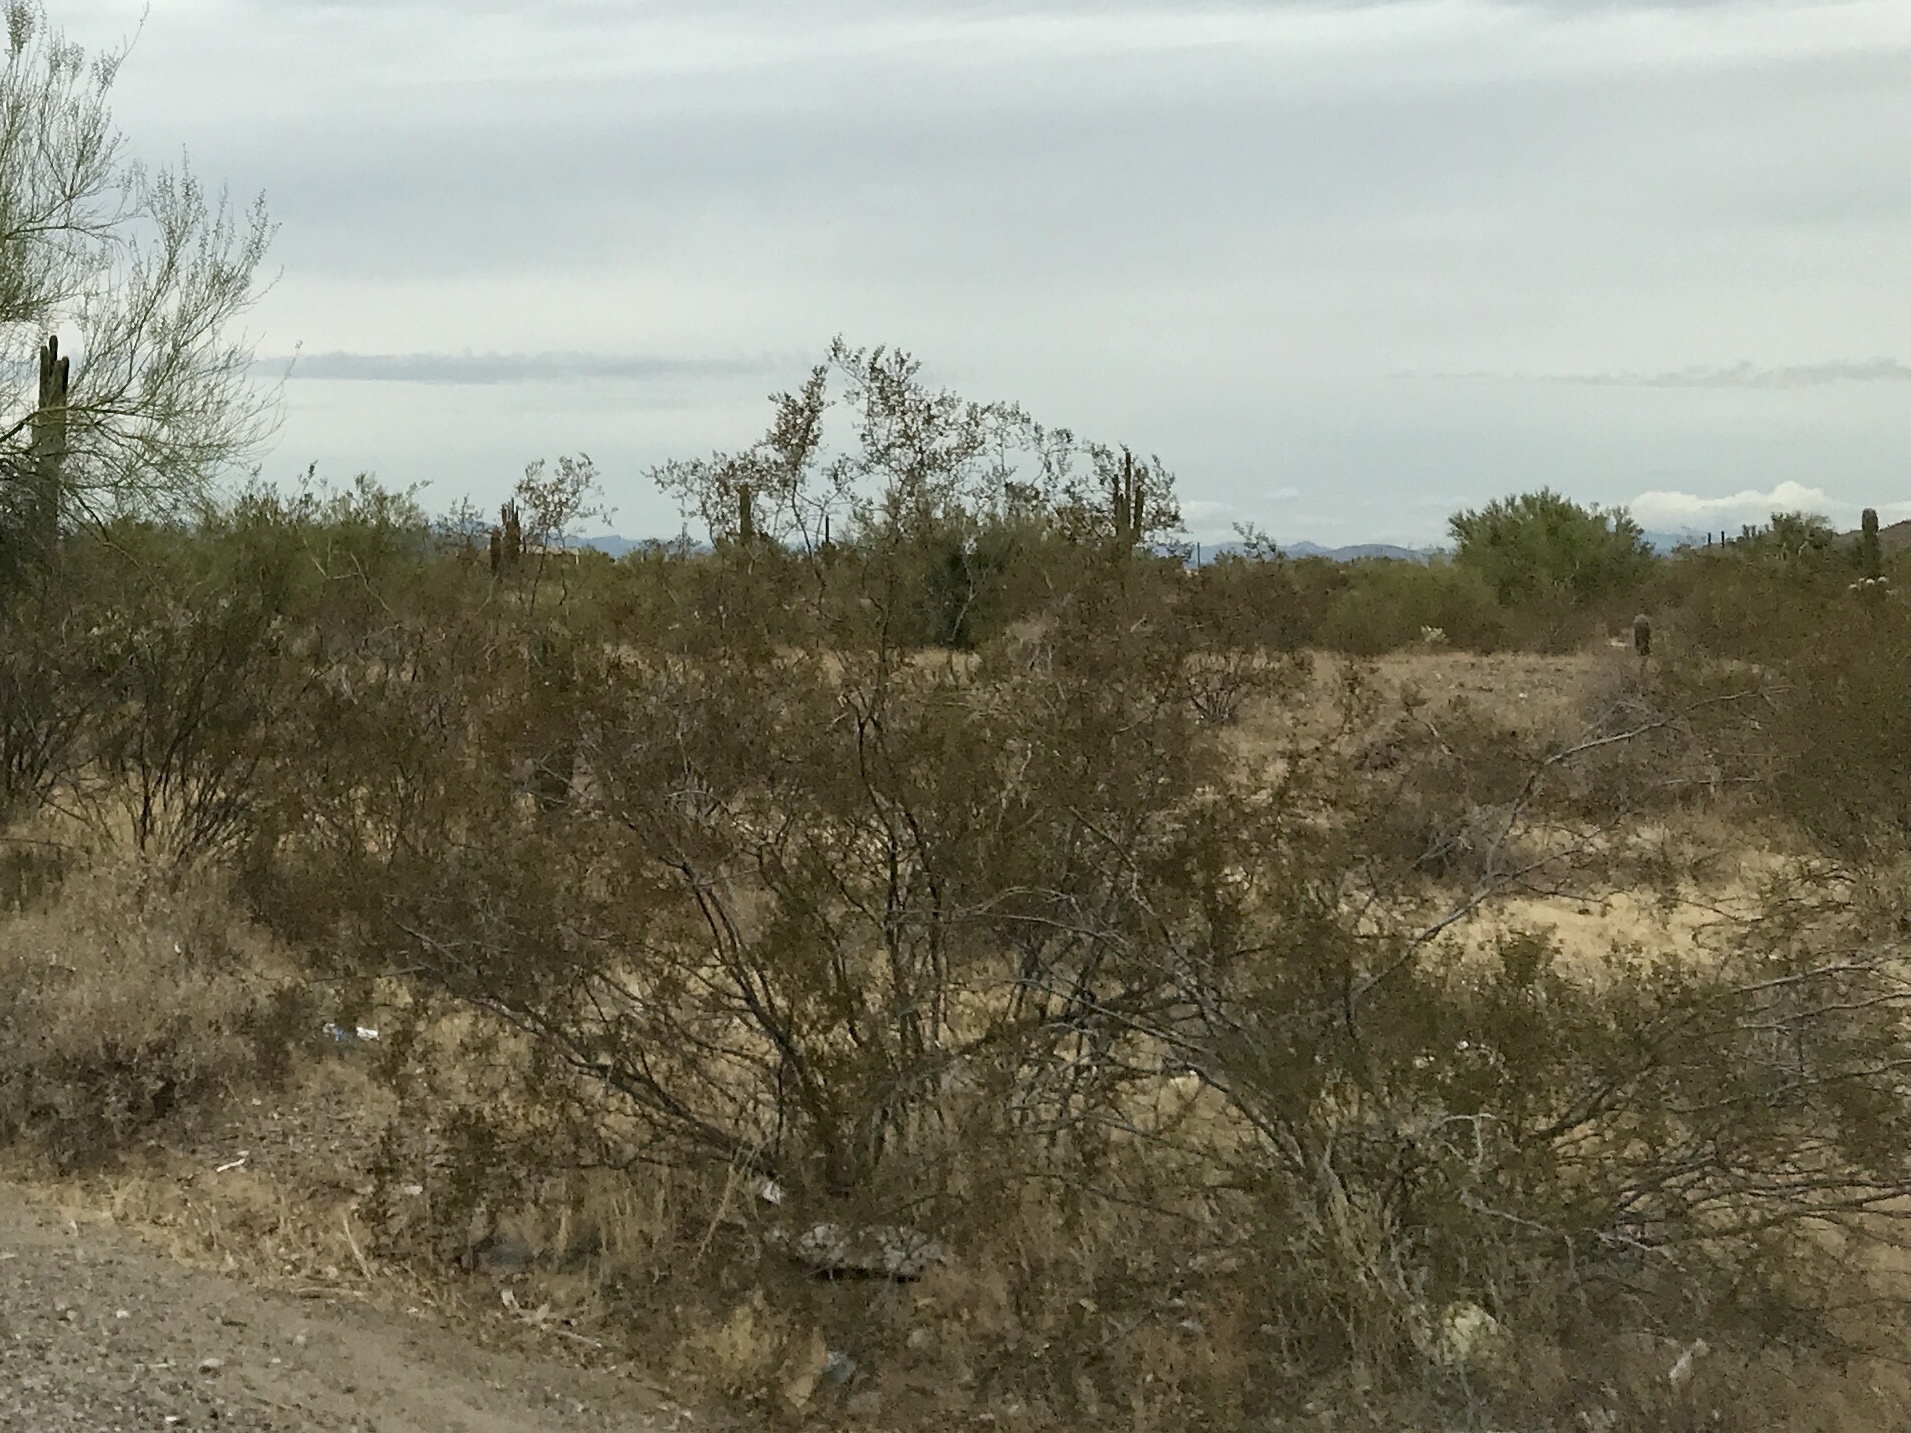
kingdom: Plantae
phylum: Tracheophyta
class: Magnoliopsida
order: Zygophyllales
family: Zygophyllaceae
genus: Larrea
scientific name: Larrea tridentata
